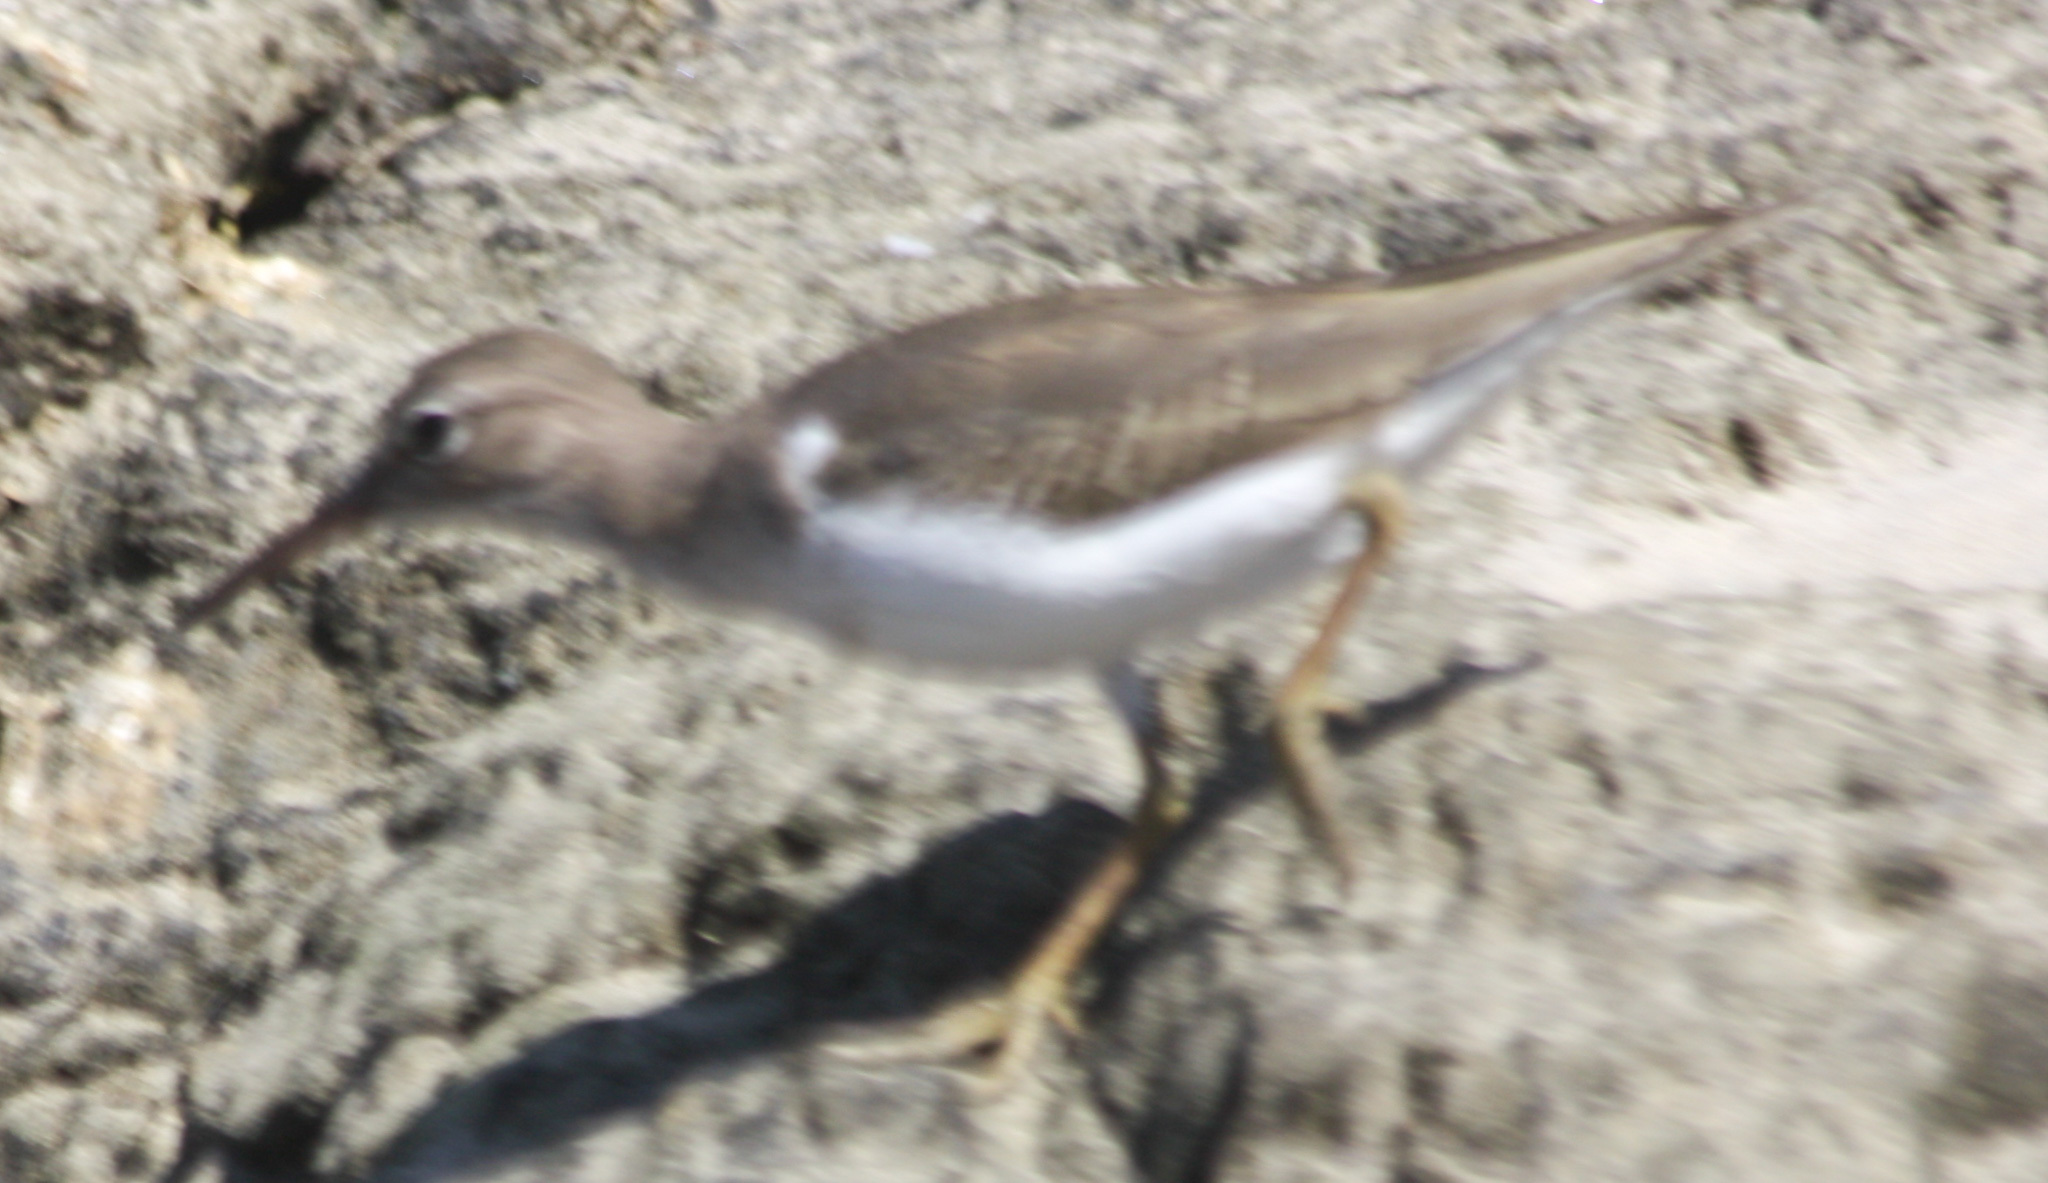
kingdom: Animalia
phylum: Chordata
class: Aves
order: Charadriiformes
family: Scolopacidae
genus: Actitis
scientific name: Actitis macularius
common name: Spotted sandpiper
